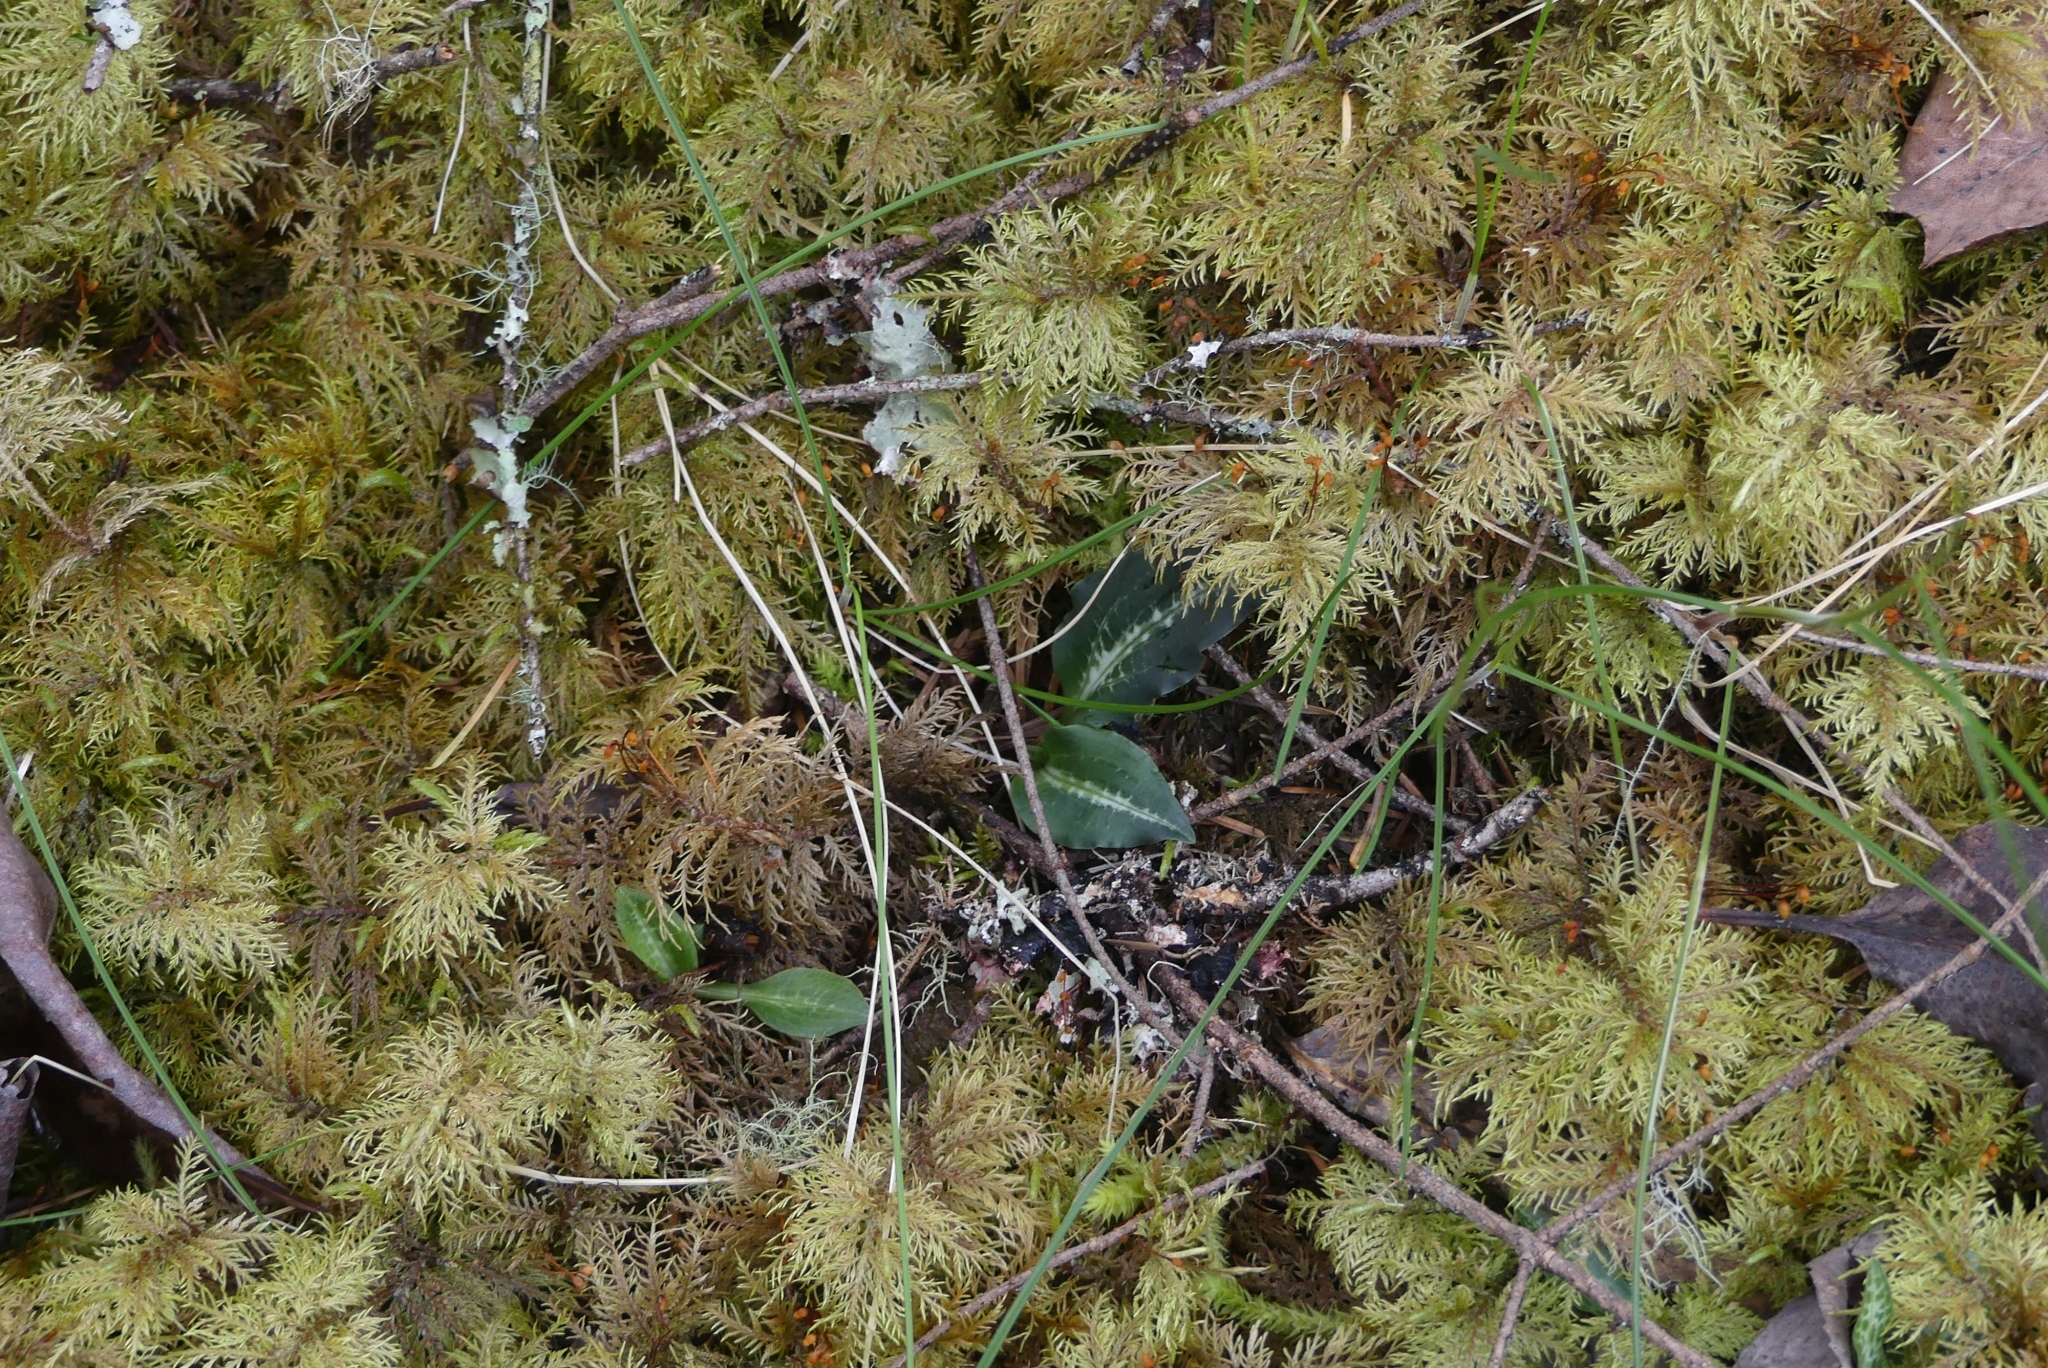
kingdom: Plantae
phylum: Tracheophyta
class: Liliopsida
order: Asparagales
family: Orchidaceae
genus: Goodyera
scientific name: Goodyera oblongifolia
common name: Giant rattlesnake-plantain
